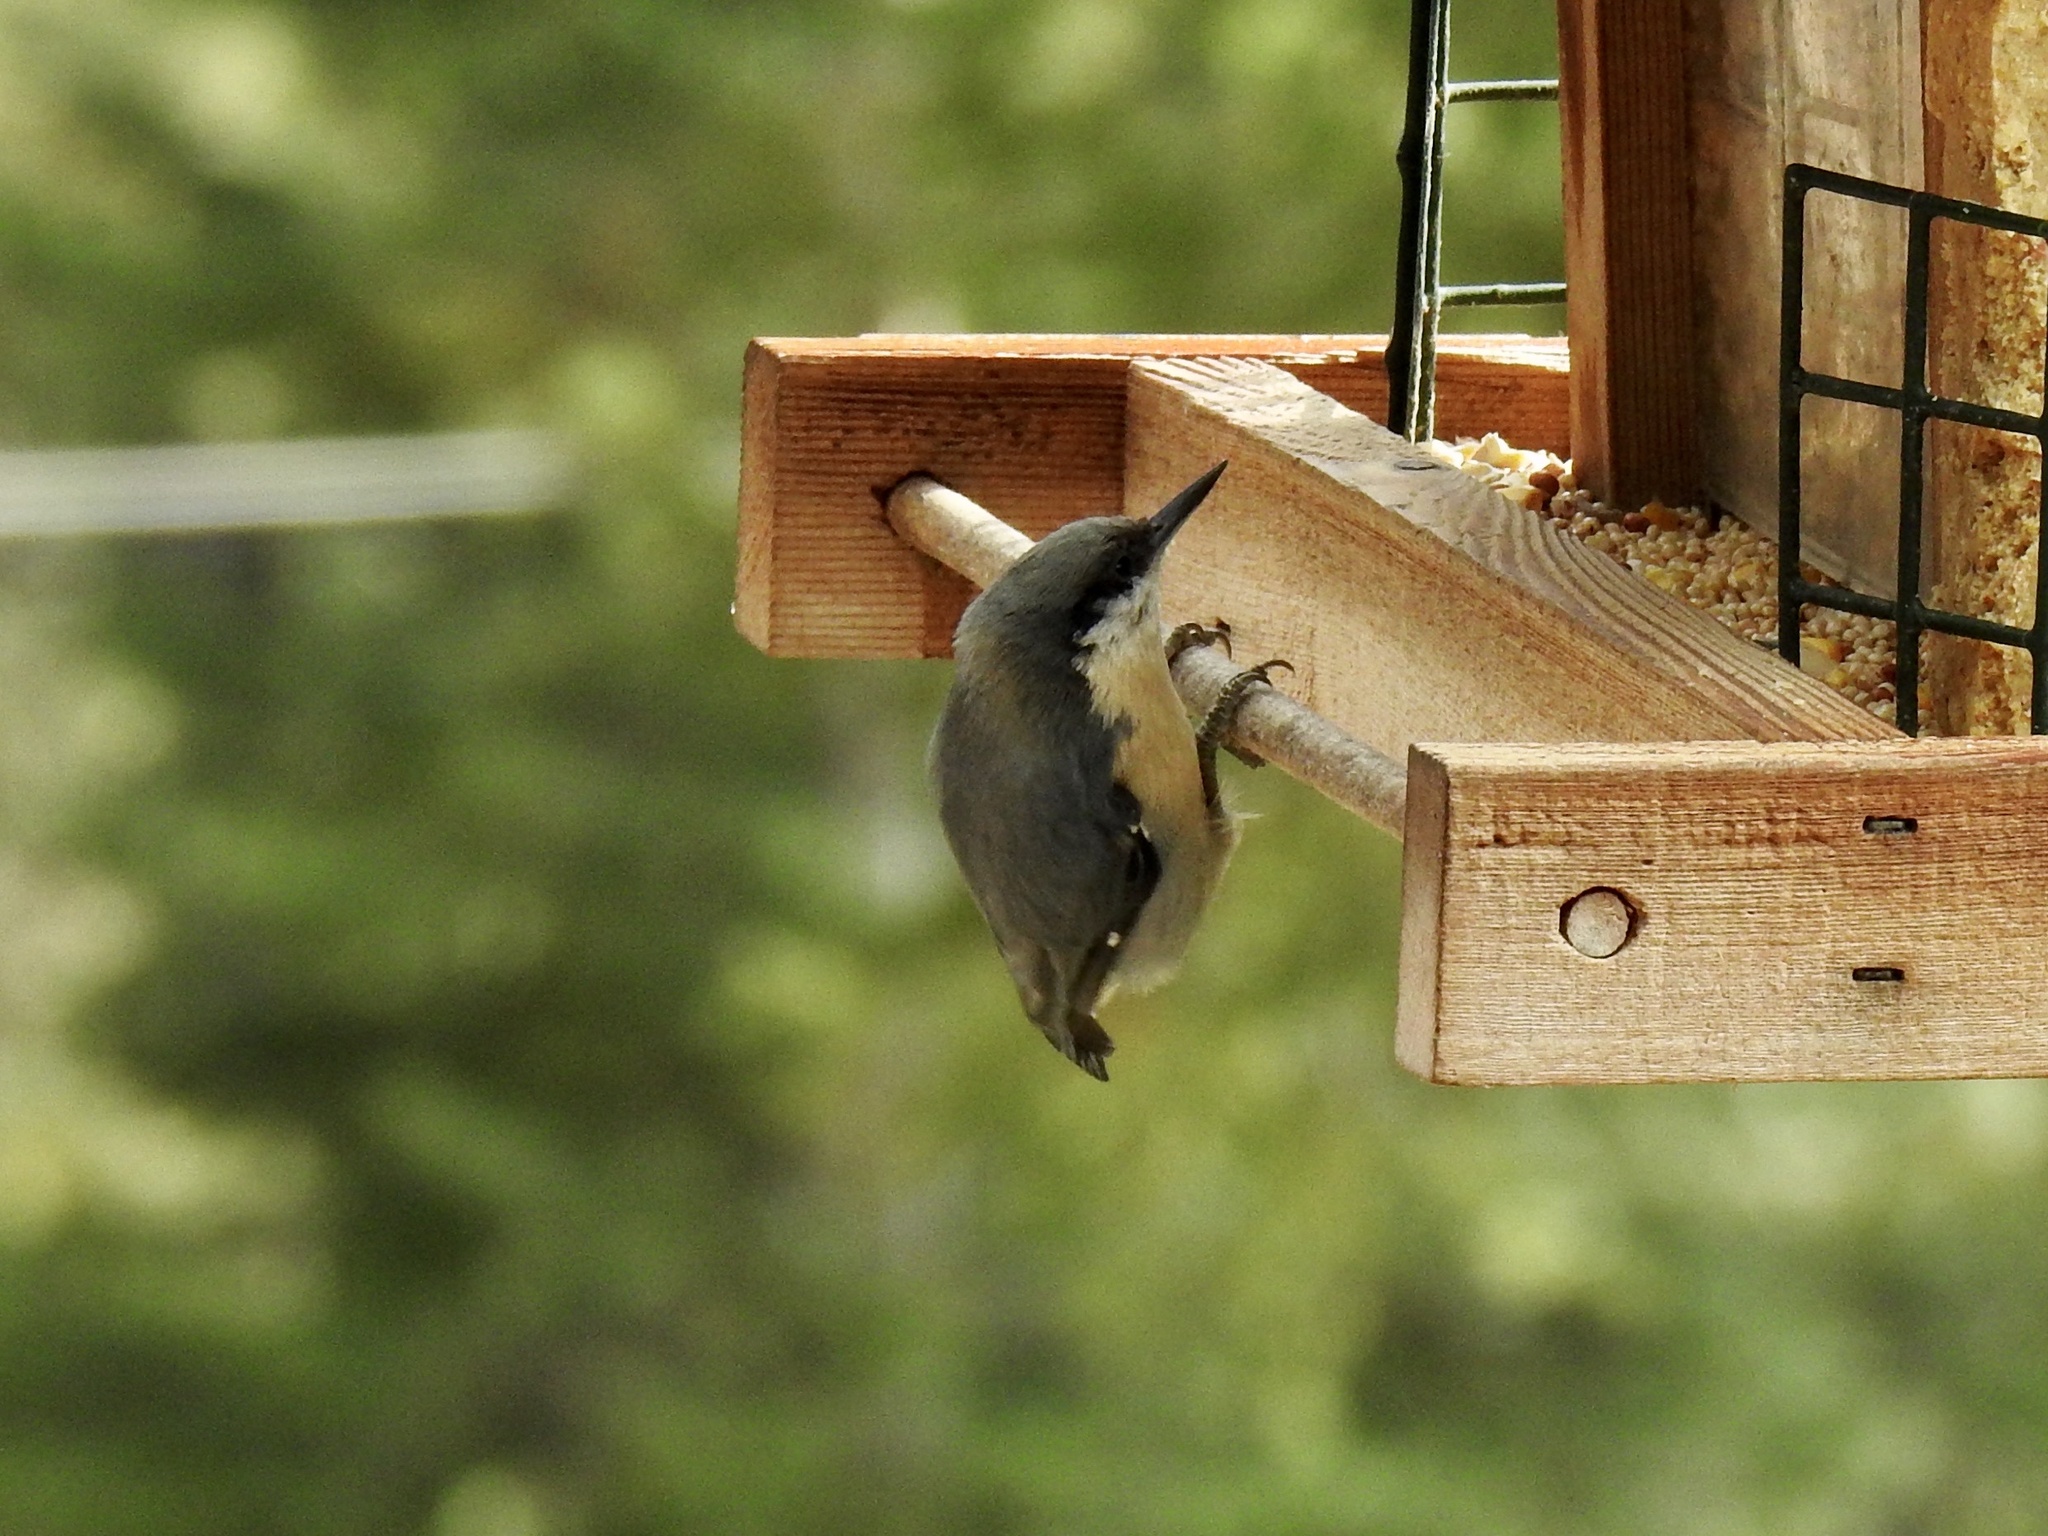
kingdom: Animalia
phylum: Chordata
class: Aves
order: Passeriformes
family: Sittidae
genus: Sitta
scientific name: Sitta pygmaea
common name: Pygmy nuthatch
